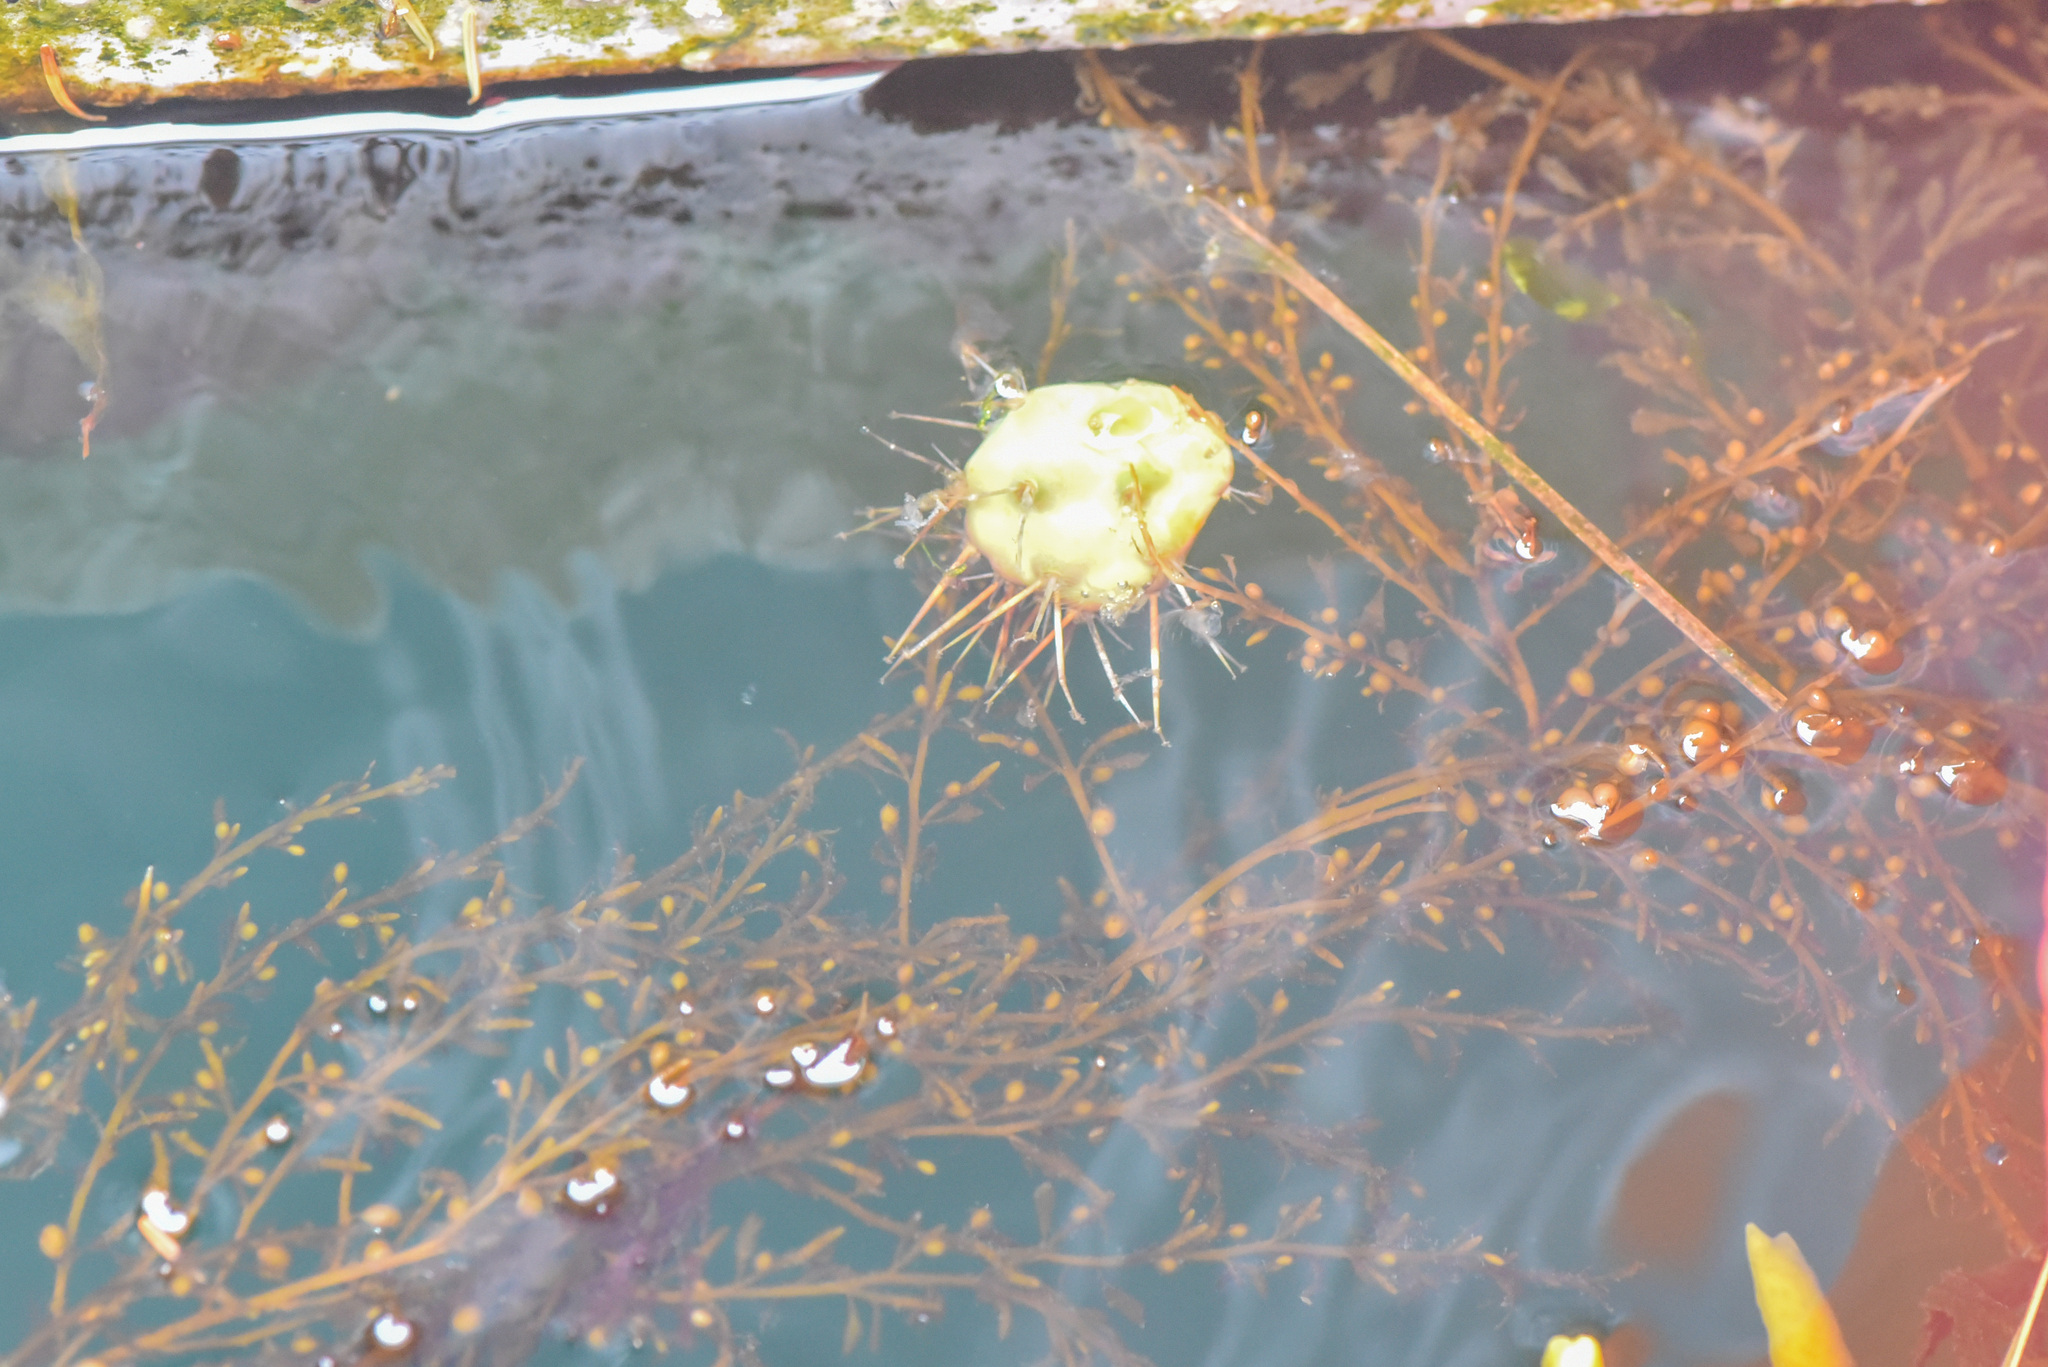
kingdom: Chromista
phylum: Ochrophyta
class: Phaeophyceae
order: Fucales
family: Sargassaceae
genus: Sargassum
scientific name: Sargassum muticum
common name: Japweed
